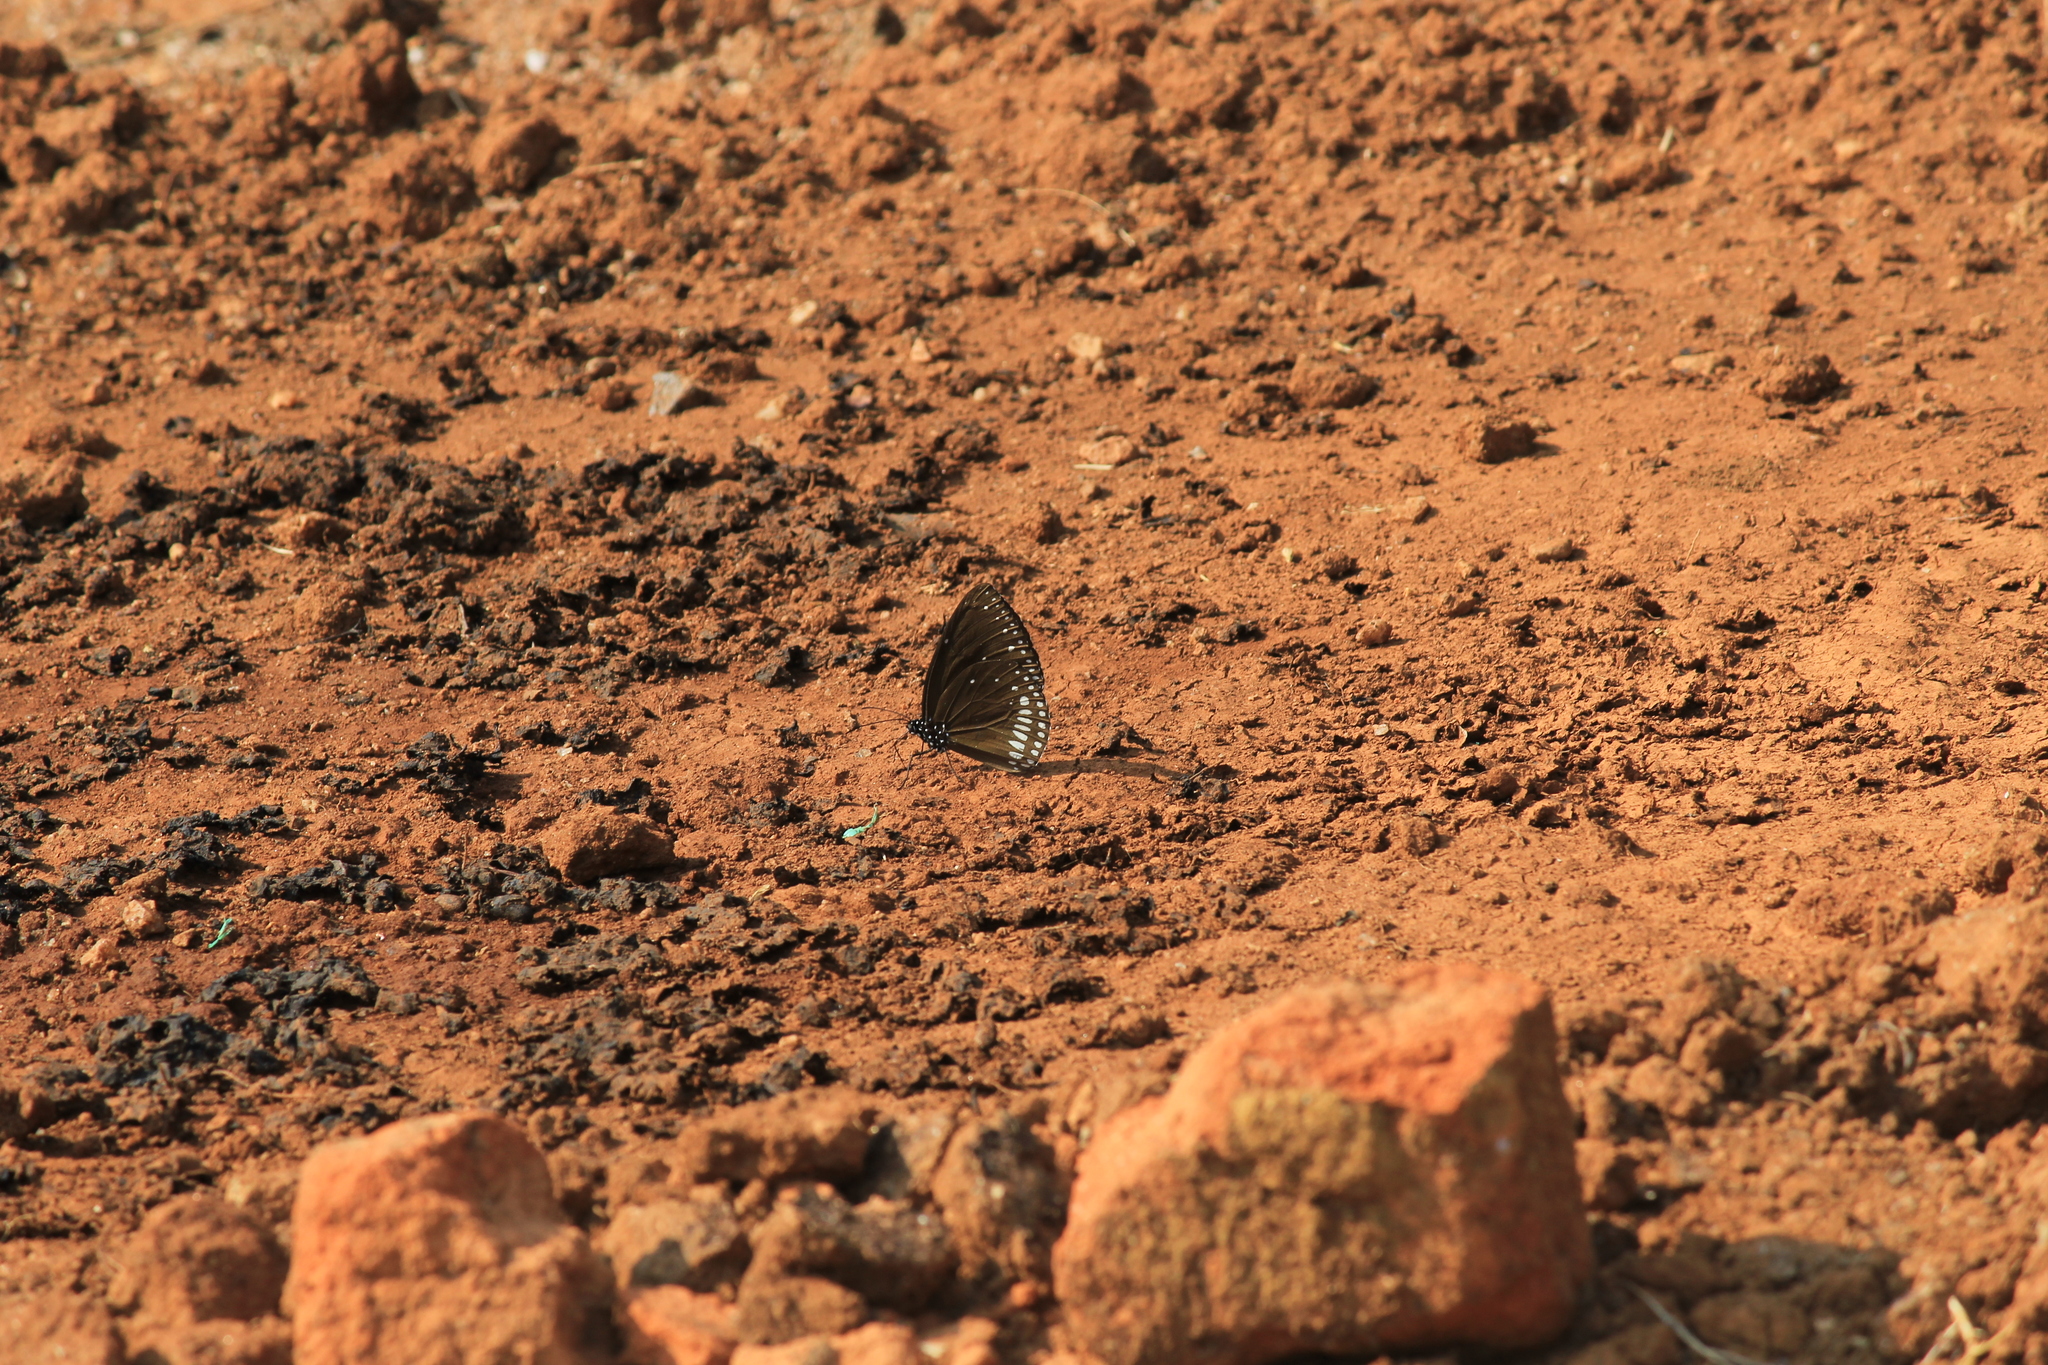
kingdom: Animalia
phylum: Arthropoda
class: Insecta
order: Lepidoptera
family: Nymphalidae
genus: Euploea
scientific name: Euploea klugii
